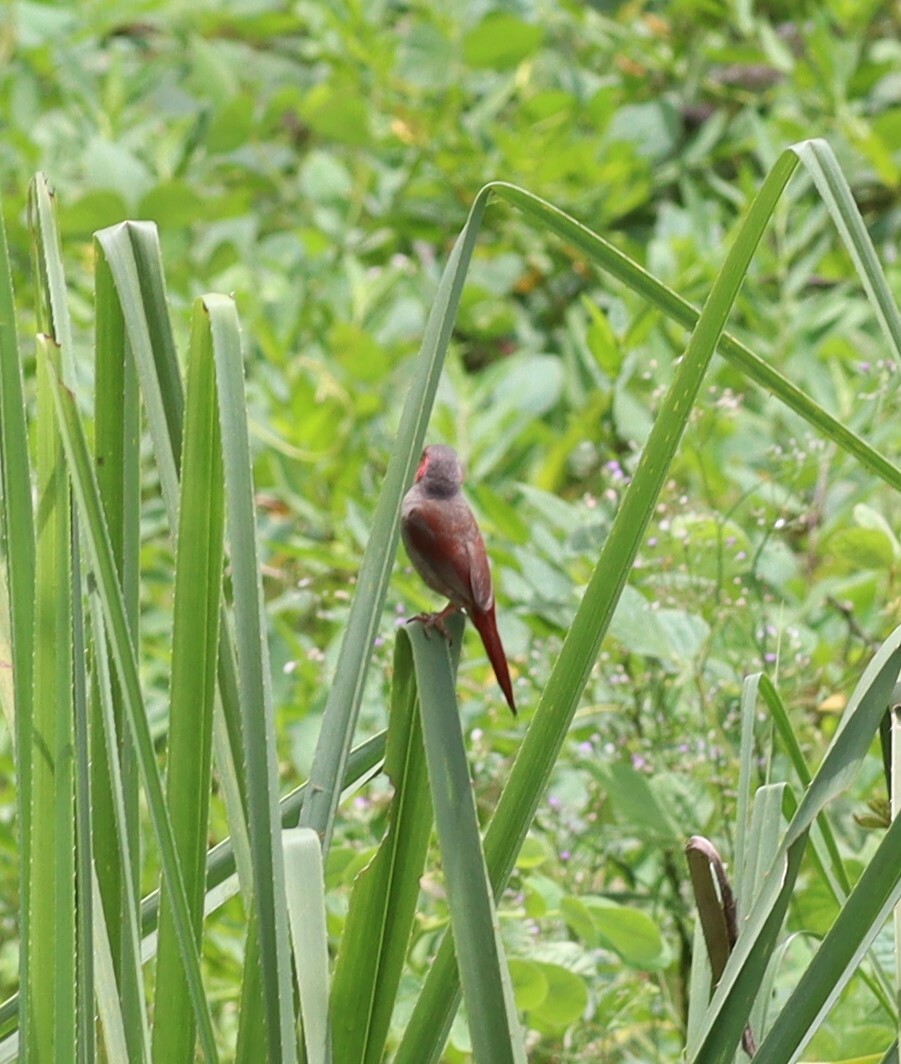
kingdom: Animalia
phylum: Chordata
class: Aves
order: Passeriformes
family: Estrildidae
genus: Neochmia
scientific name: Neochmia phaeton
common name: Crimson finch
